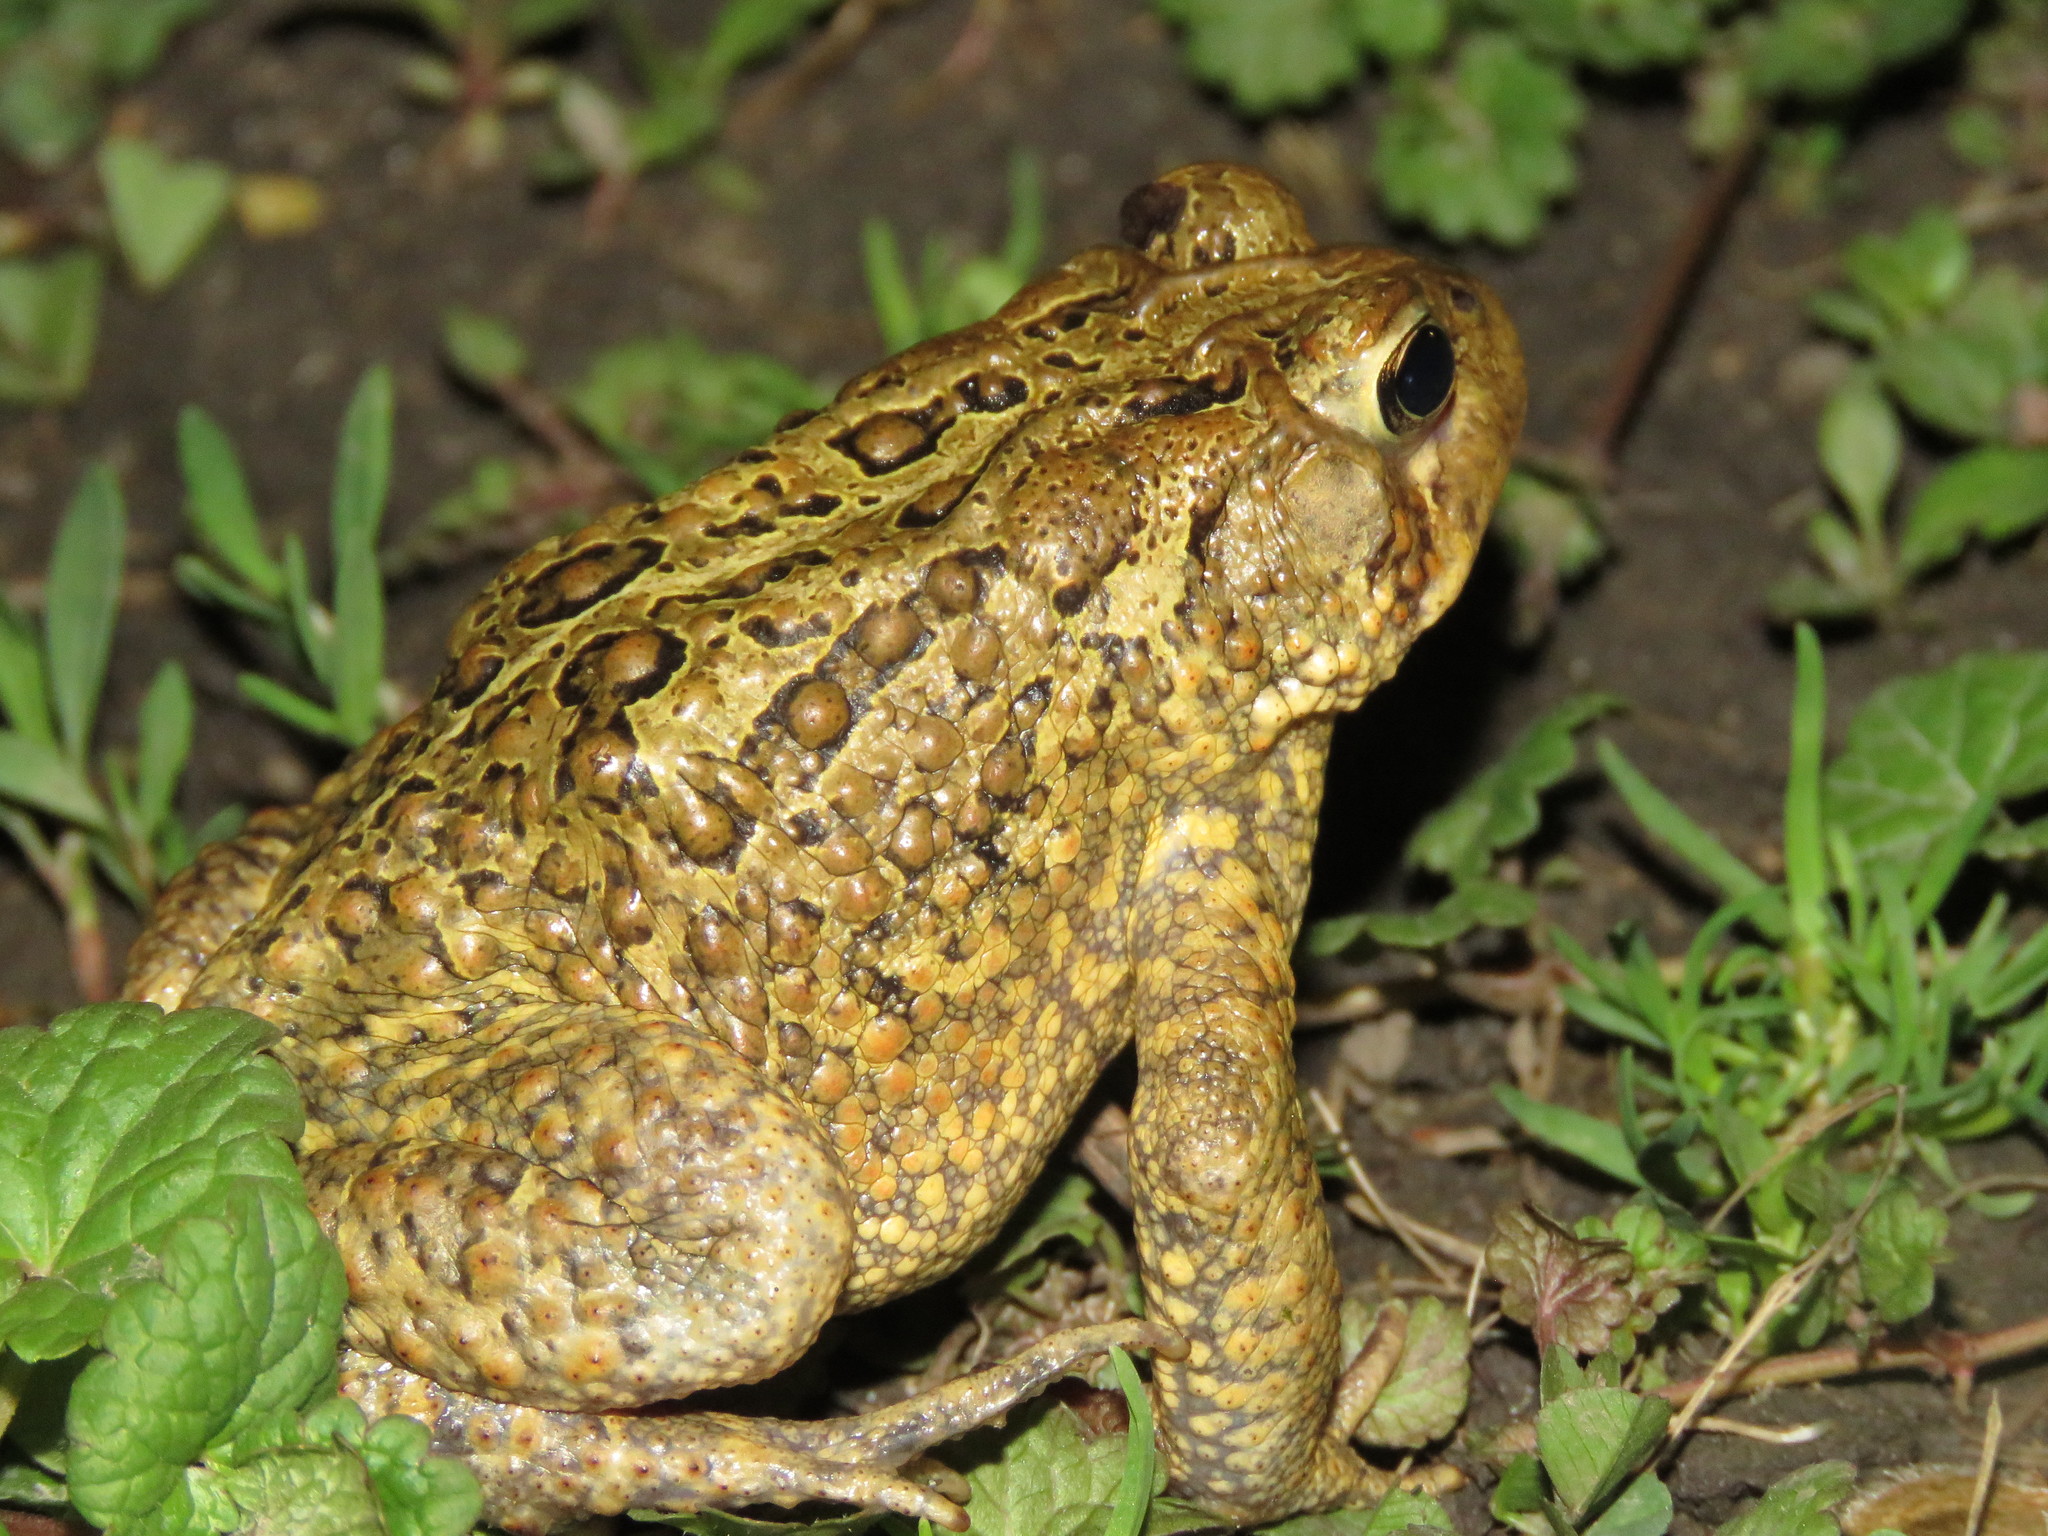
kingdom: Animalia
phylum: Chordata
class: Amphibia
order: Anura
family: Bufonidae
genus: Anaxyrus
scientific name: Anaxyrus americanus
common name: American toad
